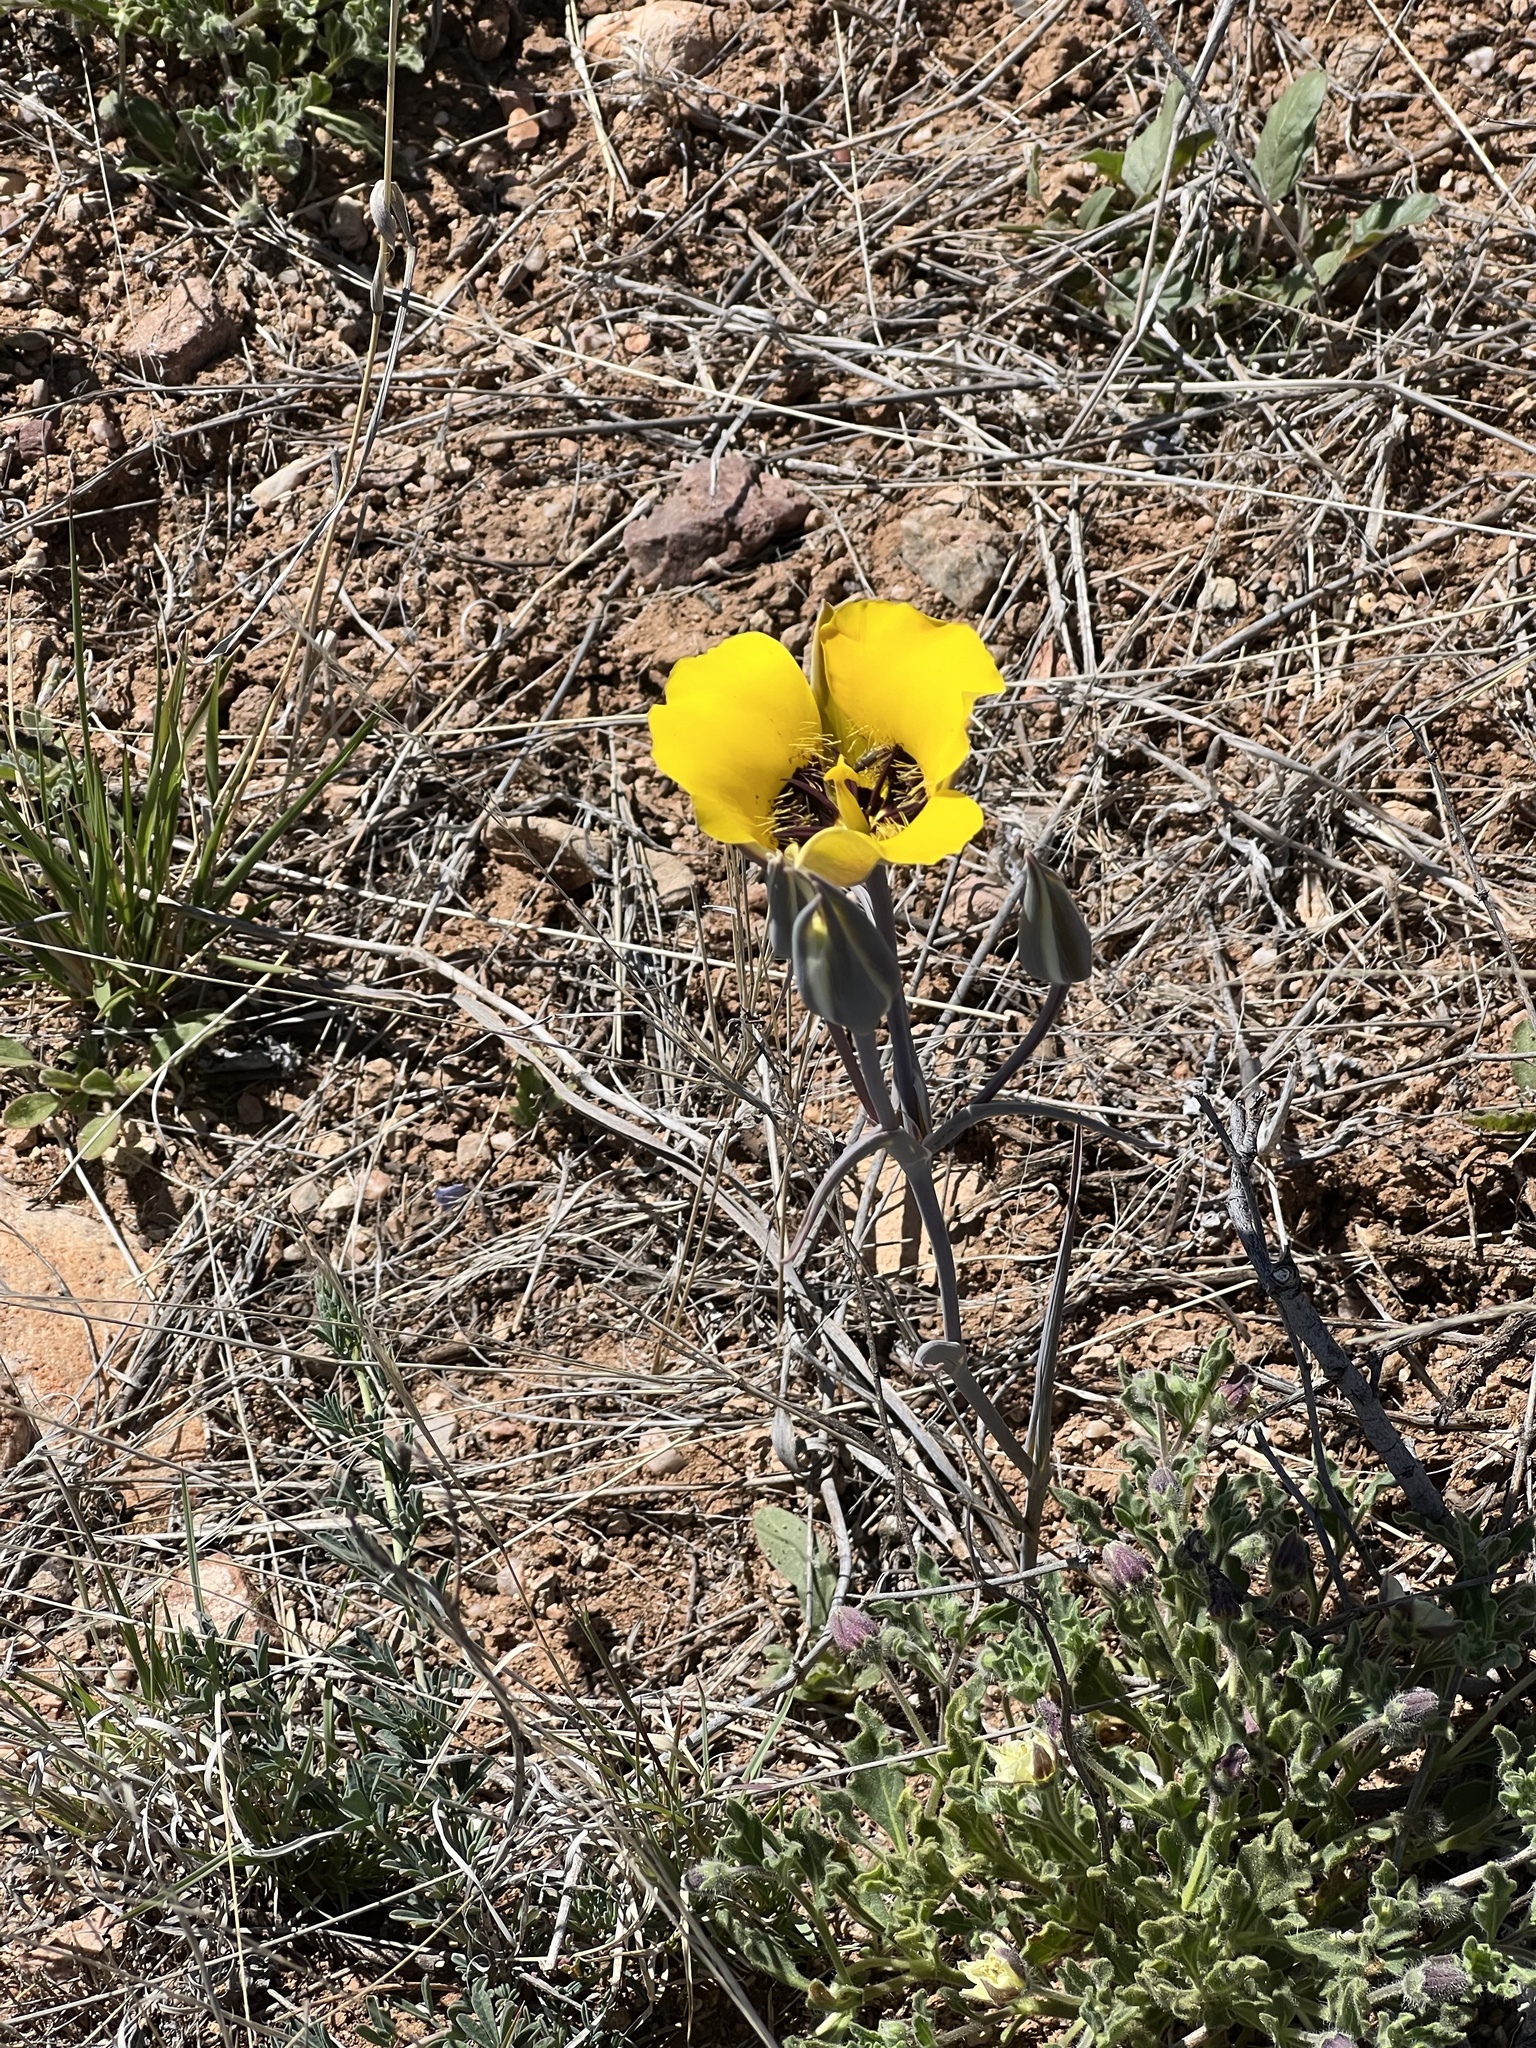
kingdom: Plantae
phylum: Tracheophyta
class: Liliopsida
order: Liliales
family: Liliaceae
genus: Calochortus
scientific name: Calochortus kennedyi
